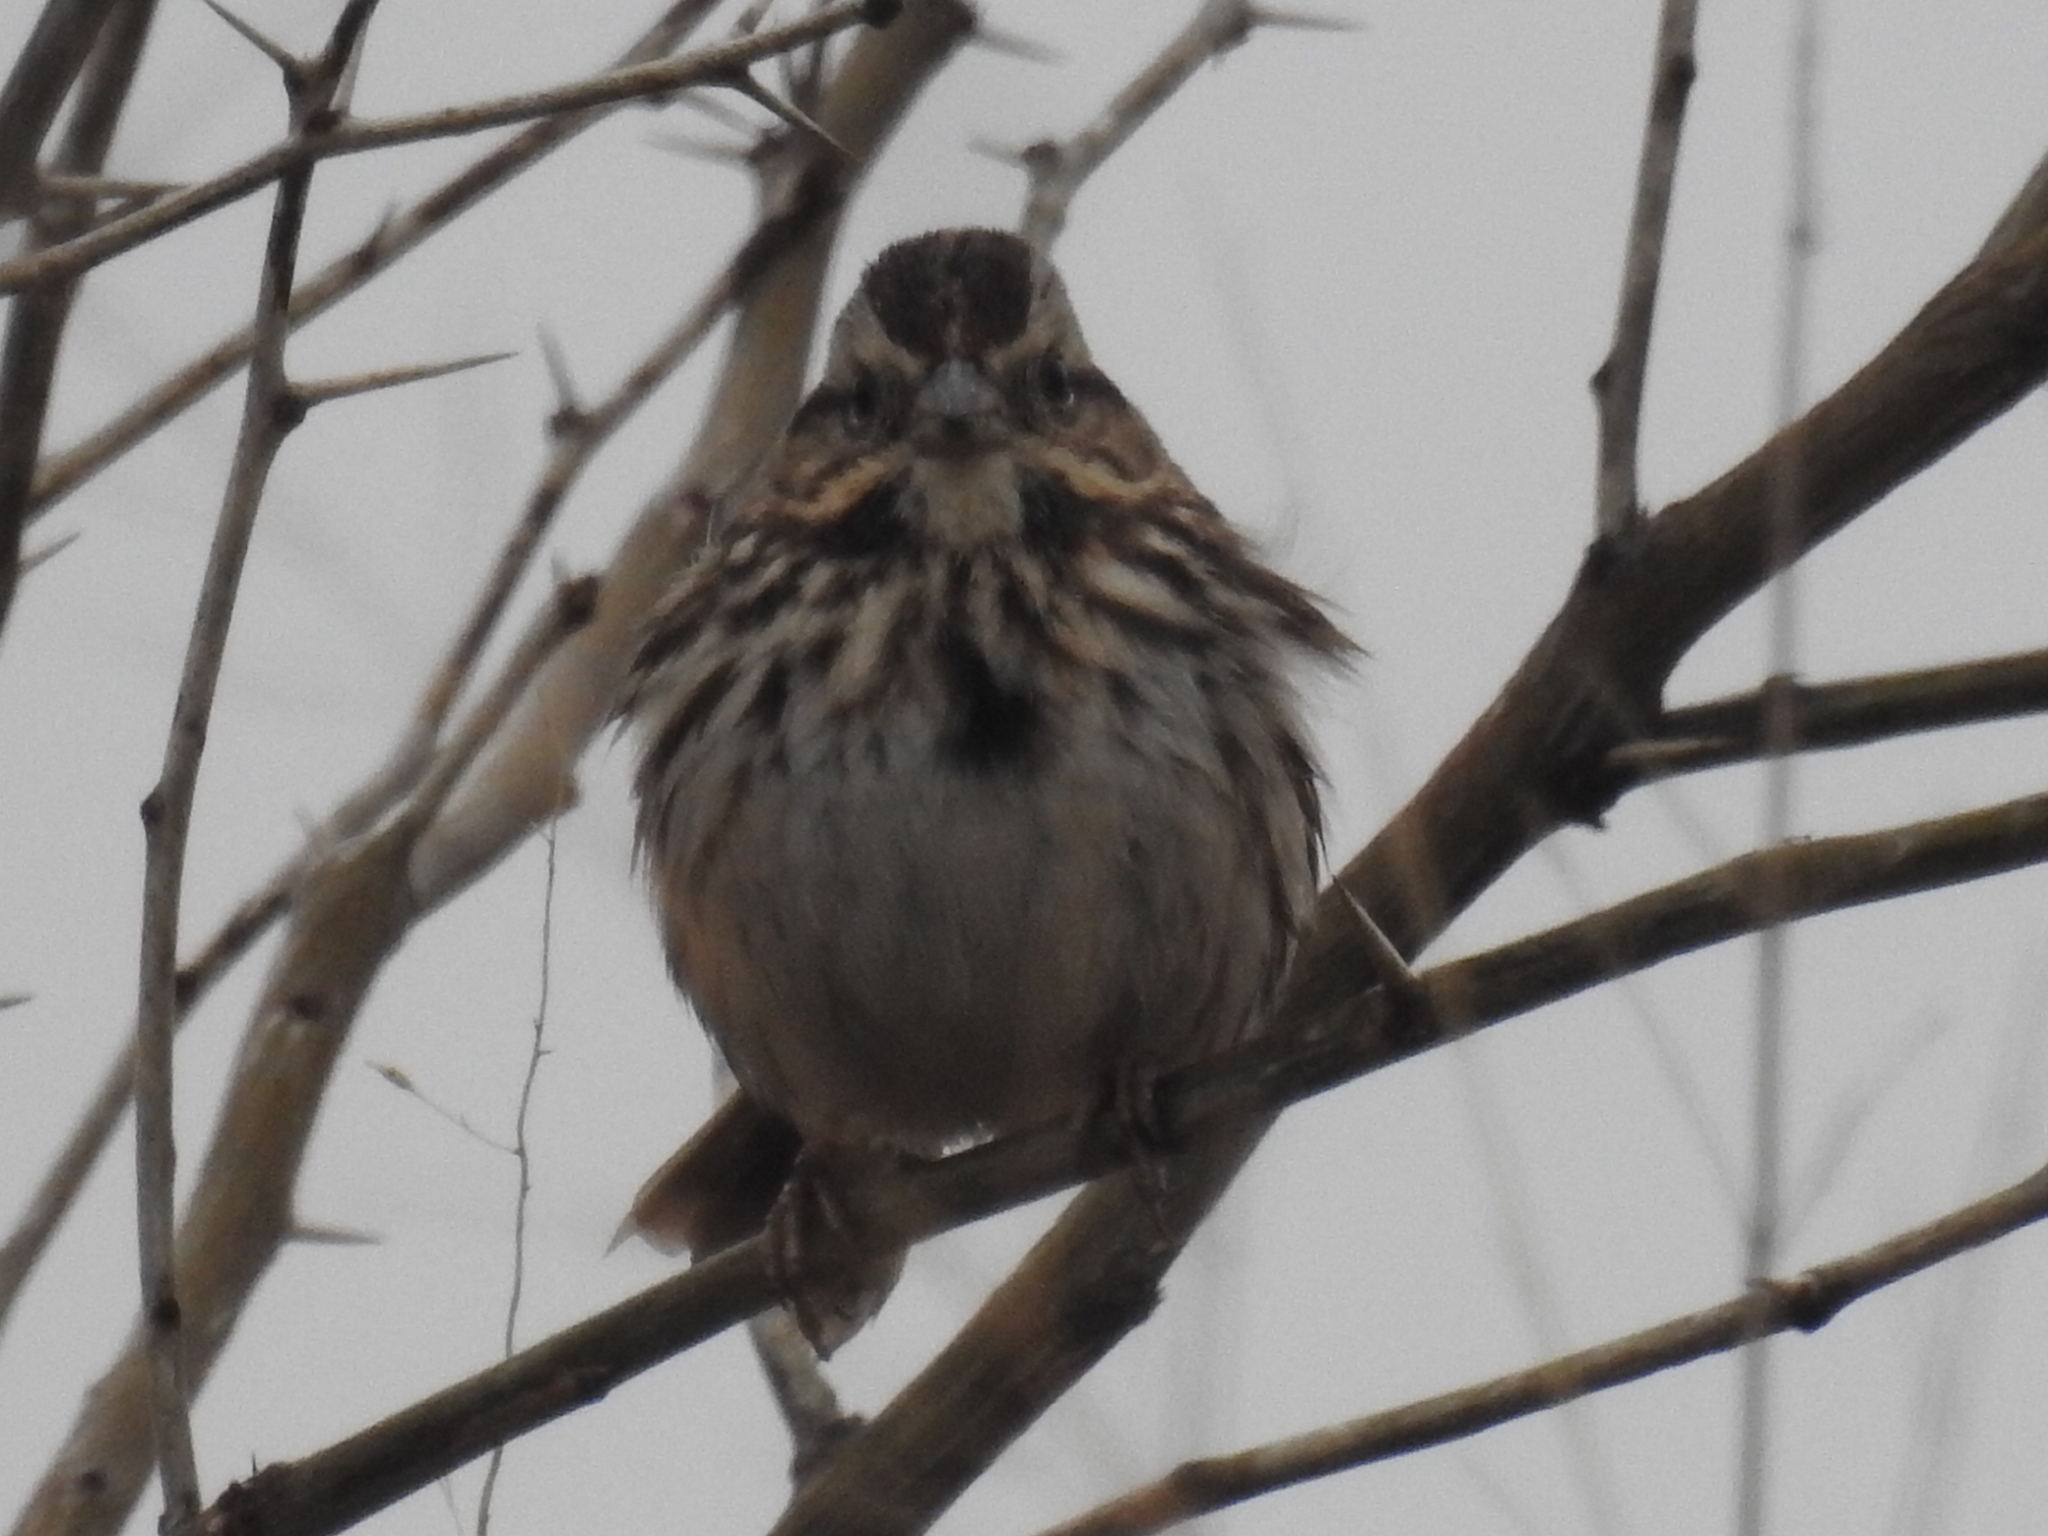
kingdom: Animalia
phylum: Chordata
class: Aves
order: Passeriformes
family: Passerellidae
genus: Melospiza
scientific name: Melospiza melodia
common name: Song sparrow
